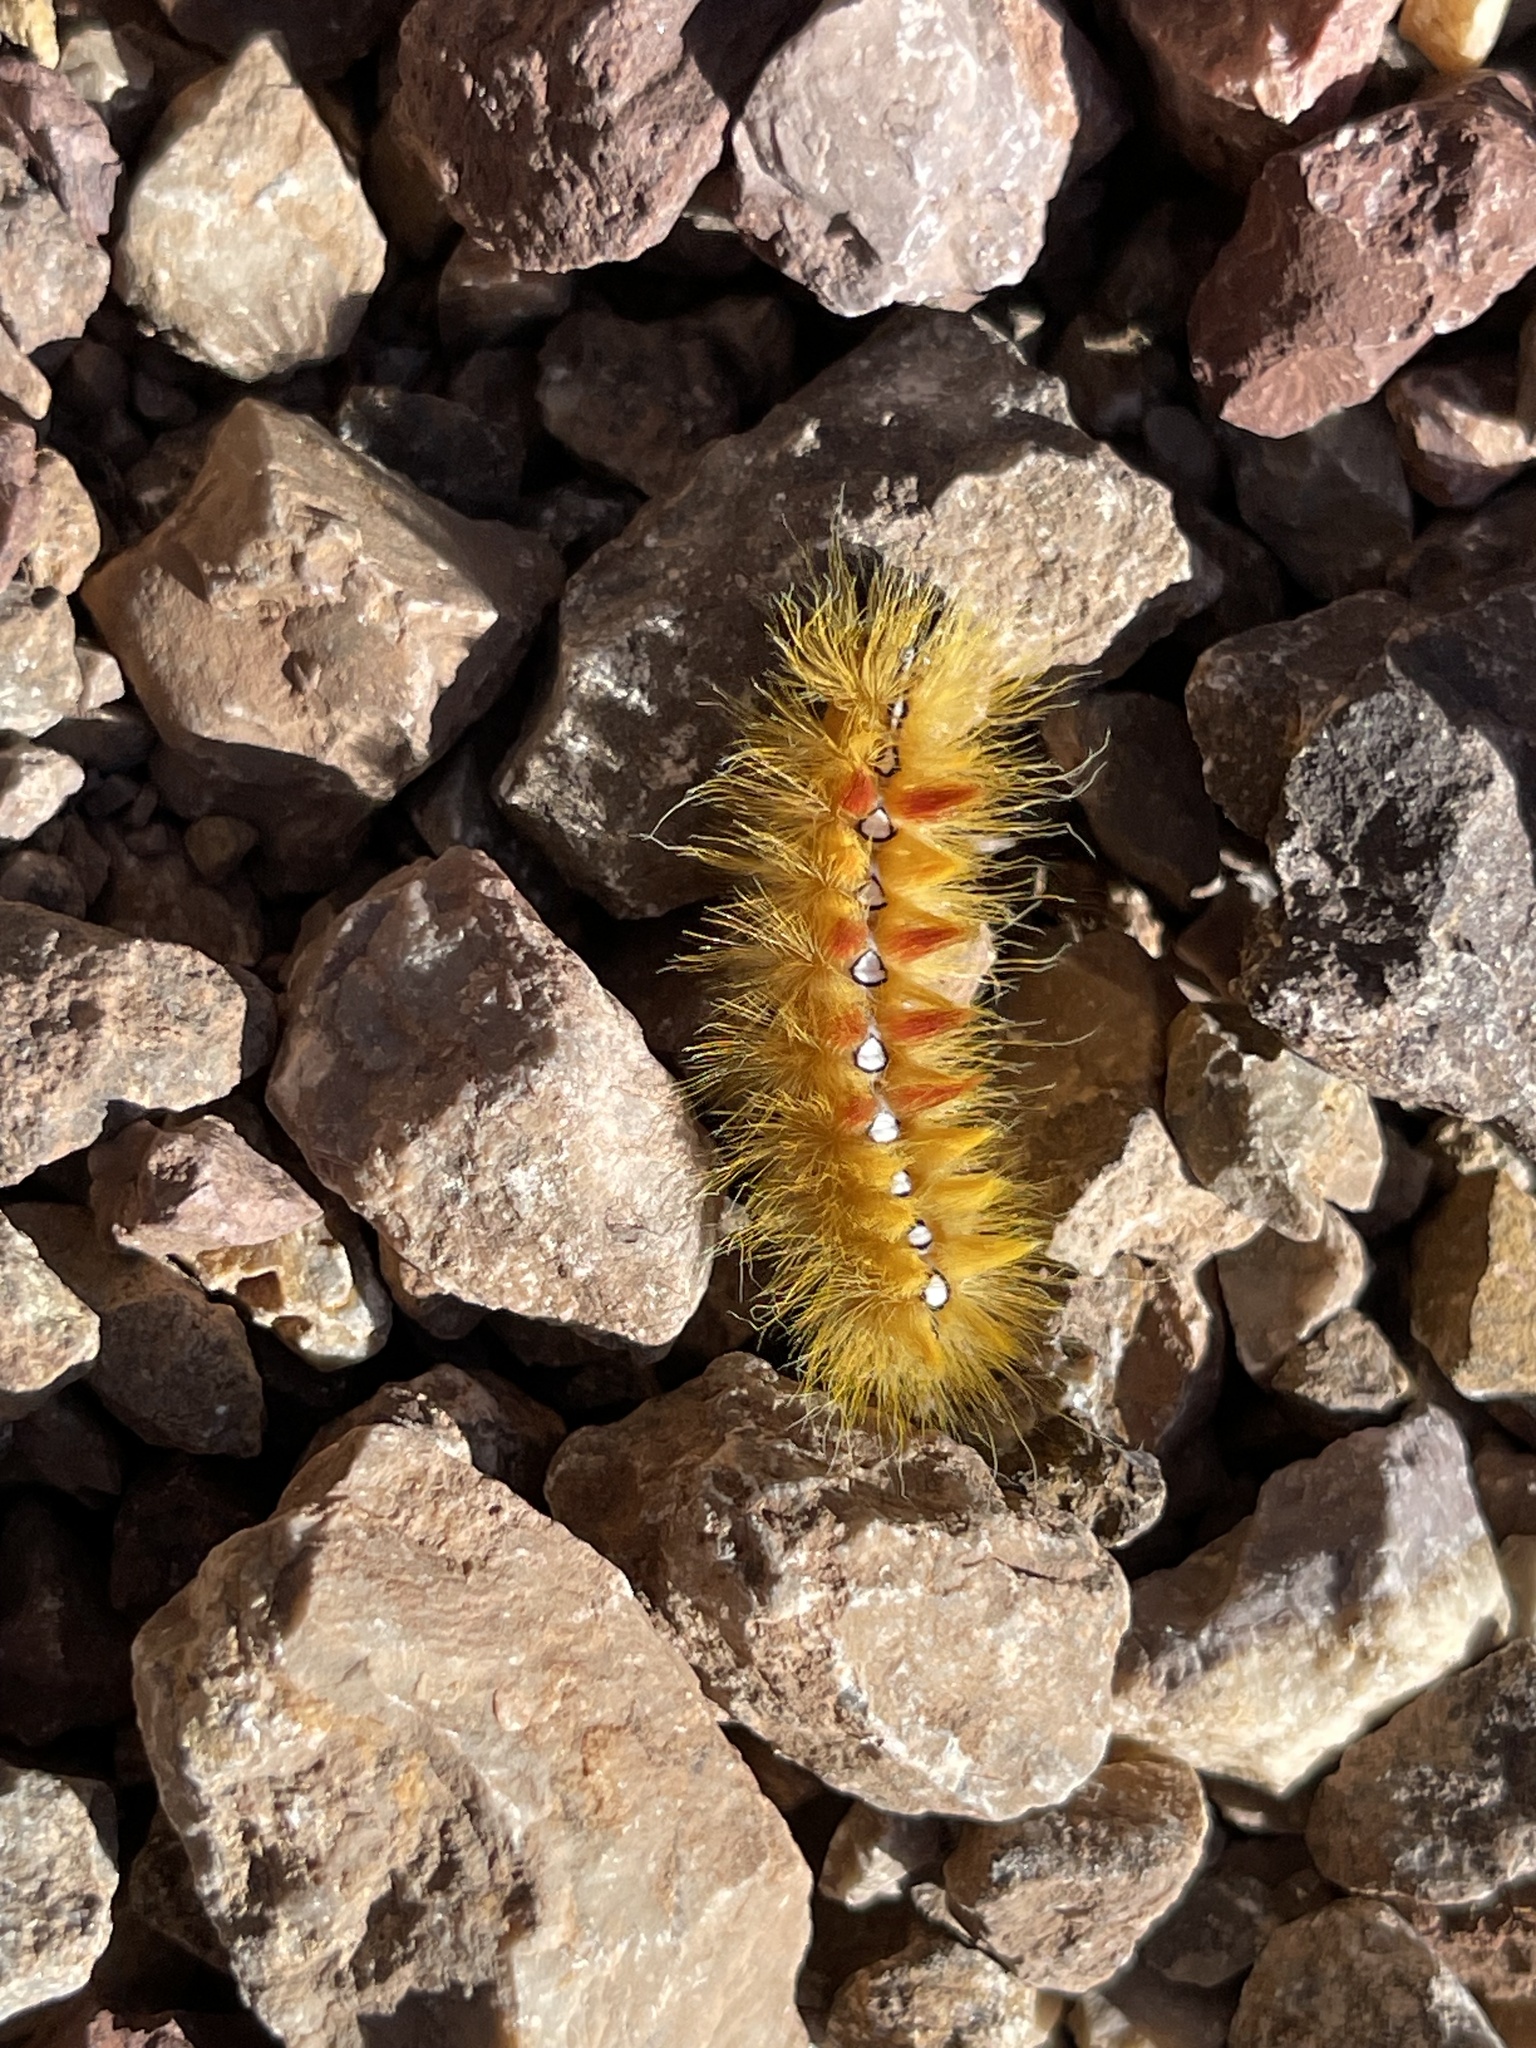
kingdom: Animalia
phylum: Arthropoda
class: Insecta
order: Lepidoptera
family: Noctuidae
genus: Acronicta
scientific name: Acronicta aceris
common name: Sycamore
